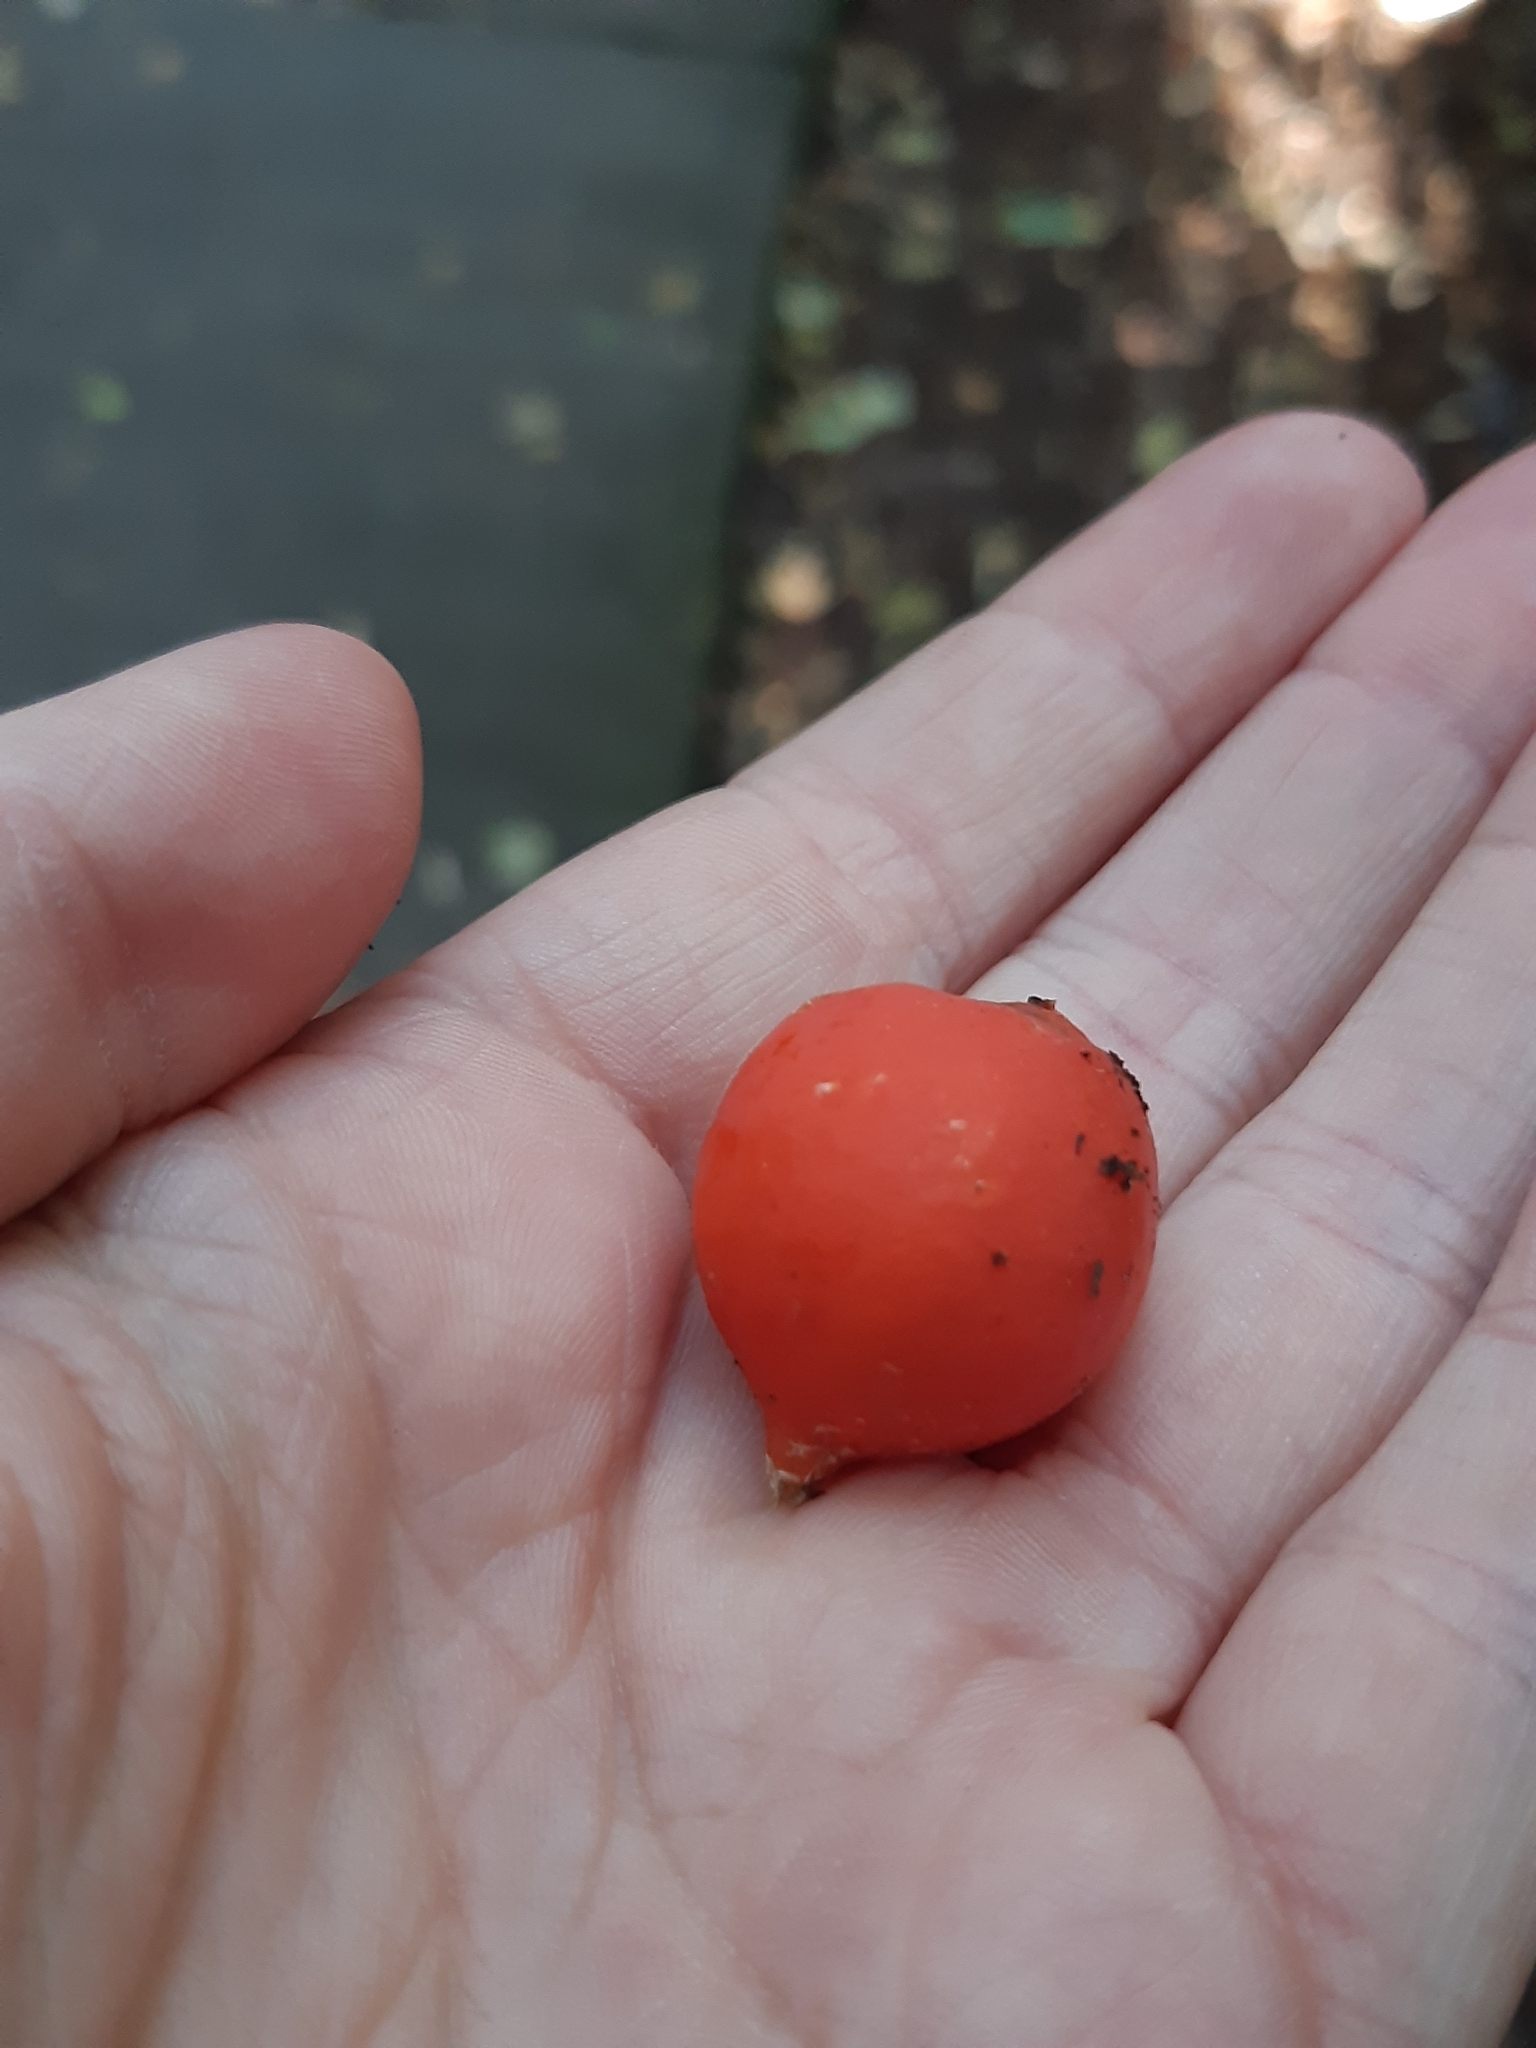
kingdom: Plantae
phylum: Tracheophyta
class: Magnoliopsida
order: Malpighiales
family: Passifloraceae
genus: Passiflora
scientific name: Passiflora tetrandra
